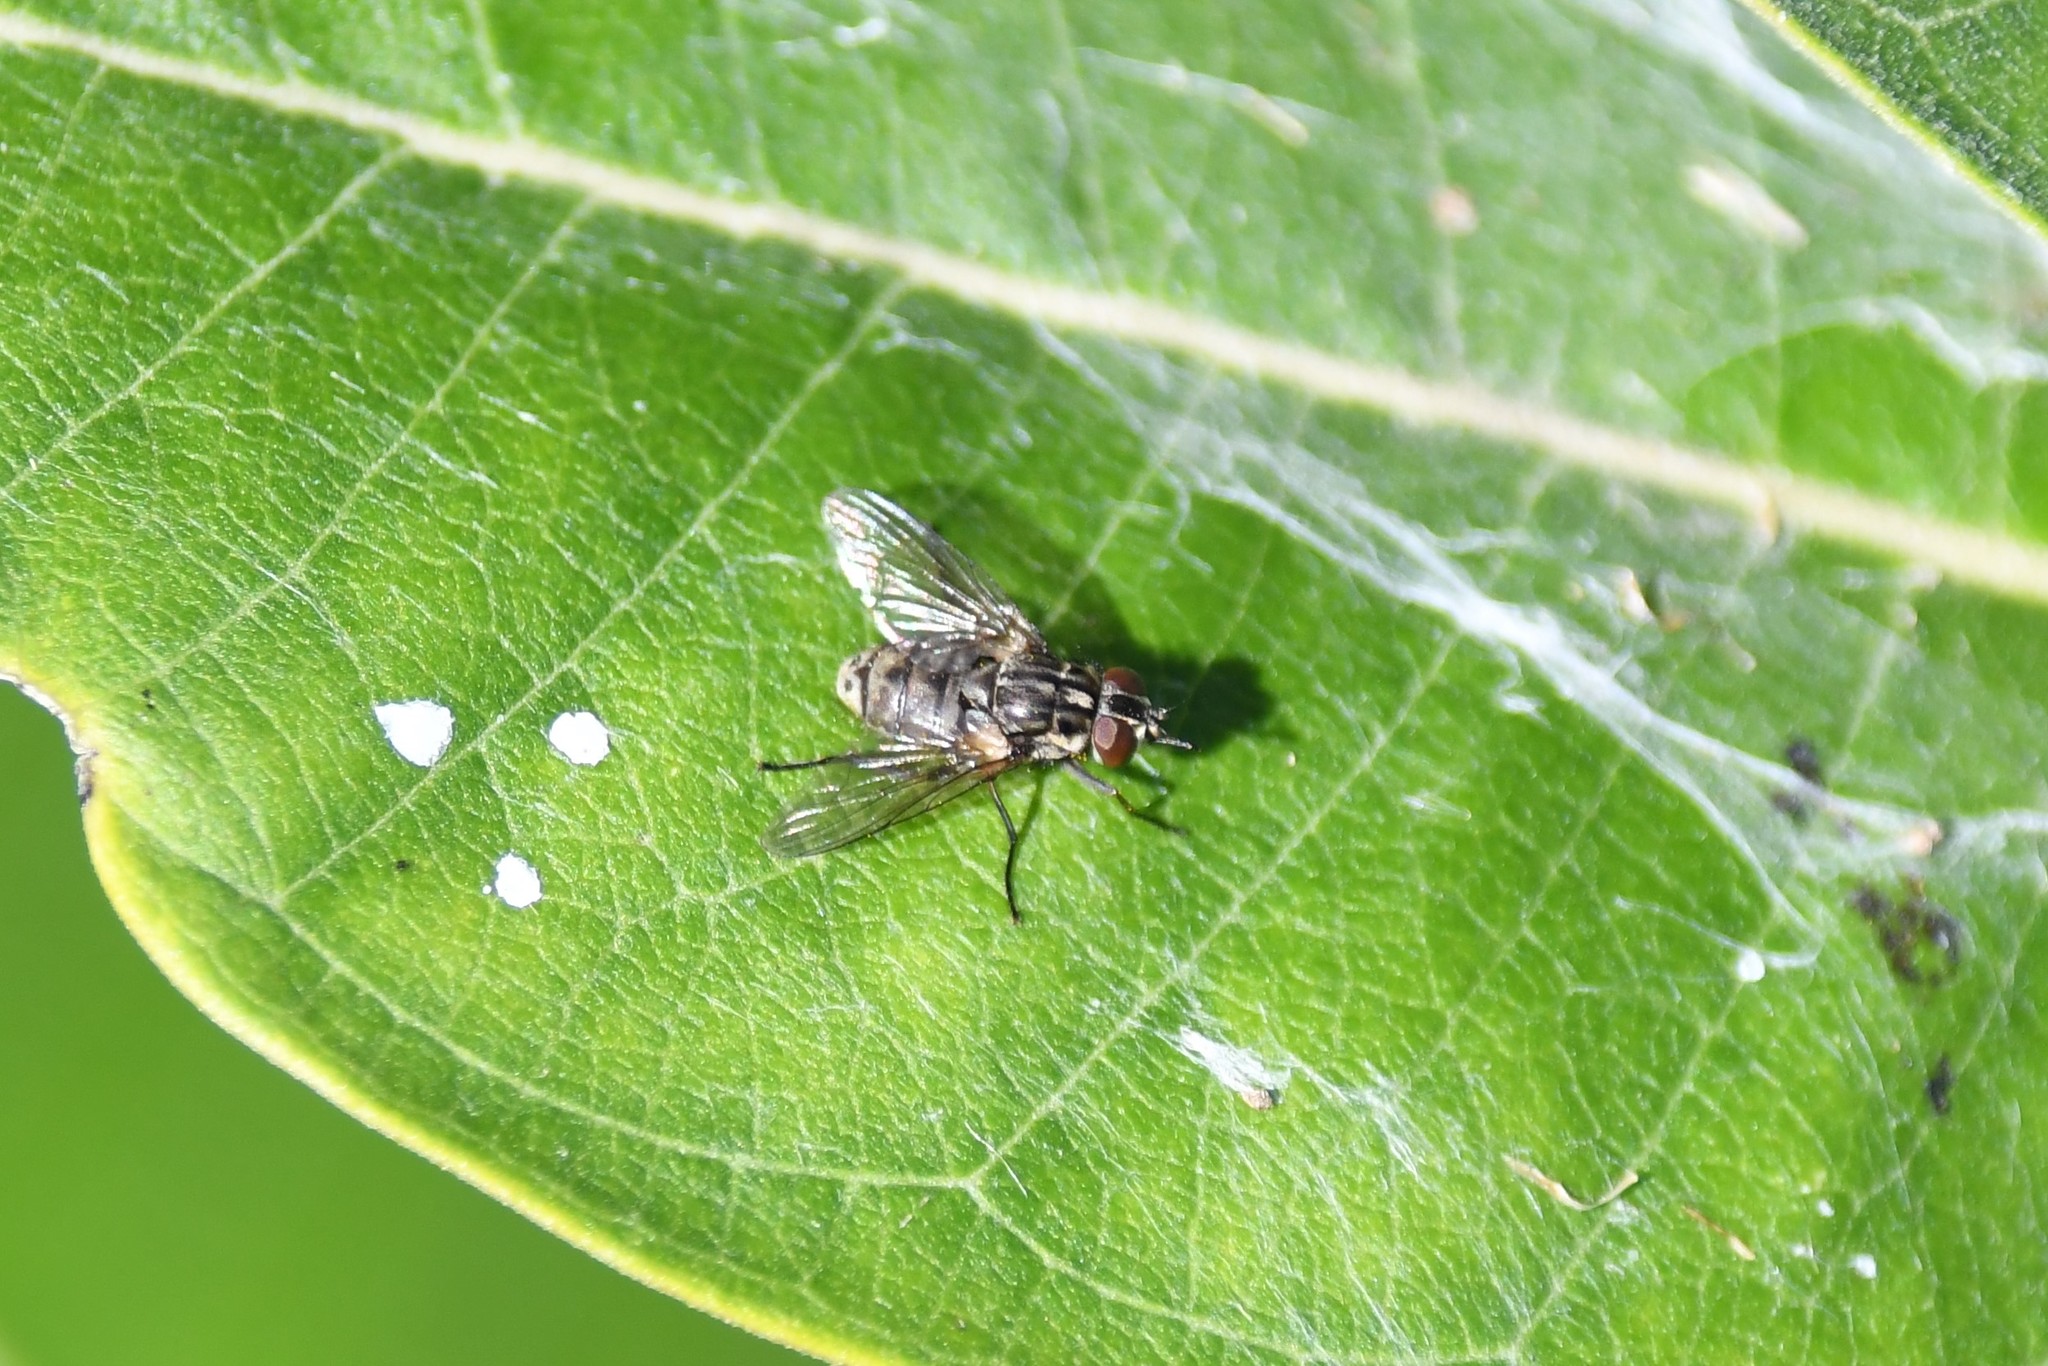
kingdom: Animalia
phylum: Arthropoda
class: Insecta
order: Diptera
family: Muscidae
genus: Stomoxys
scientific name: Stomoxys calcitrans
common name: Stable fly
